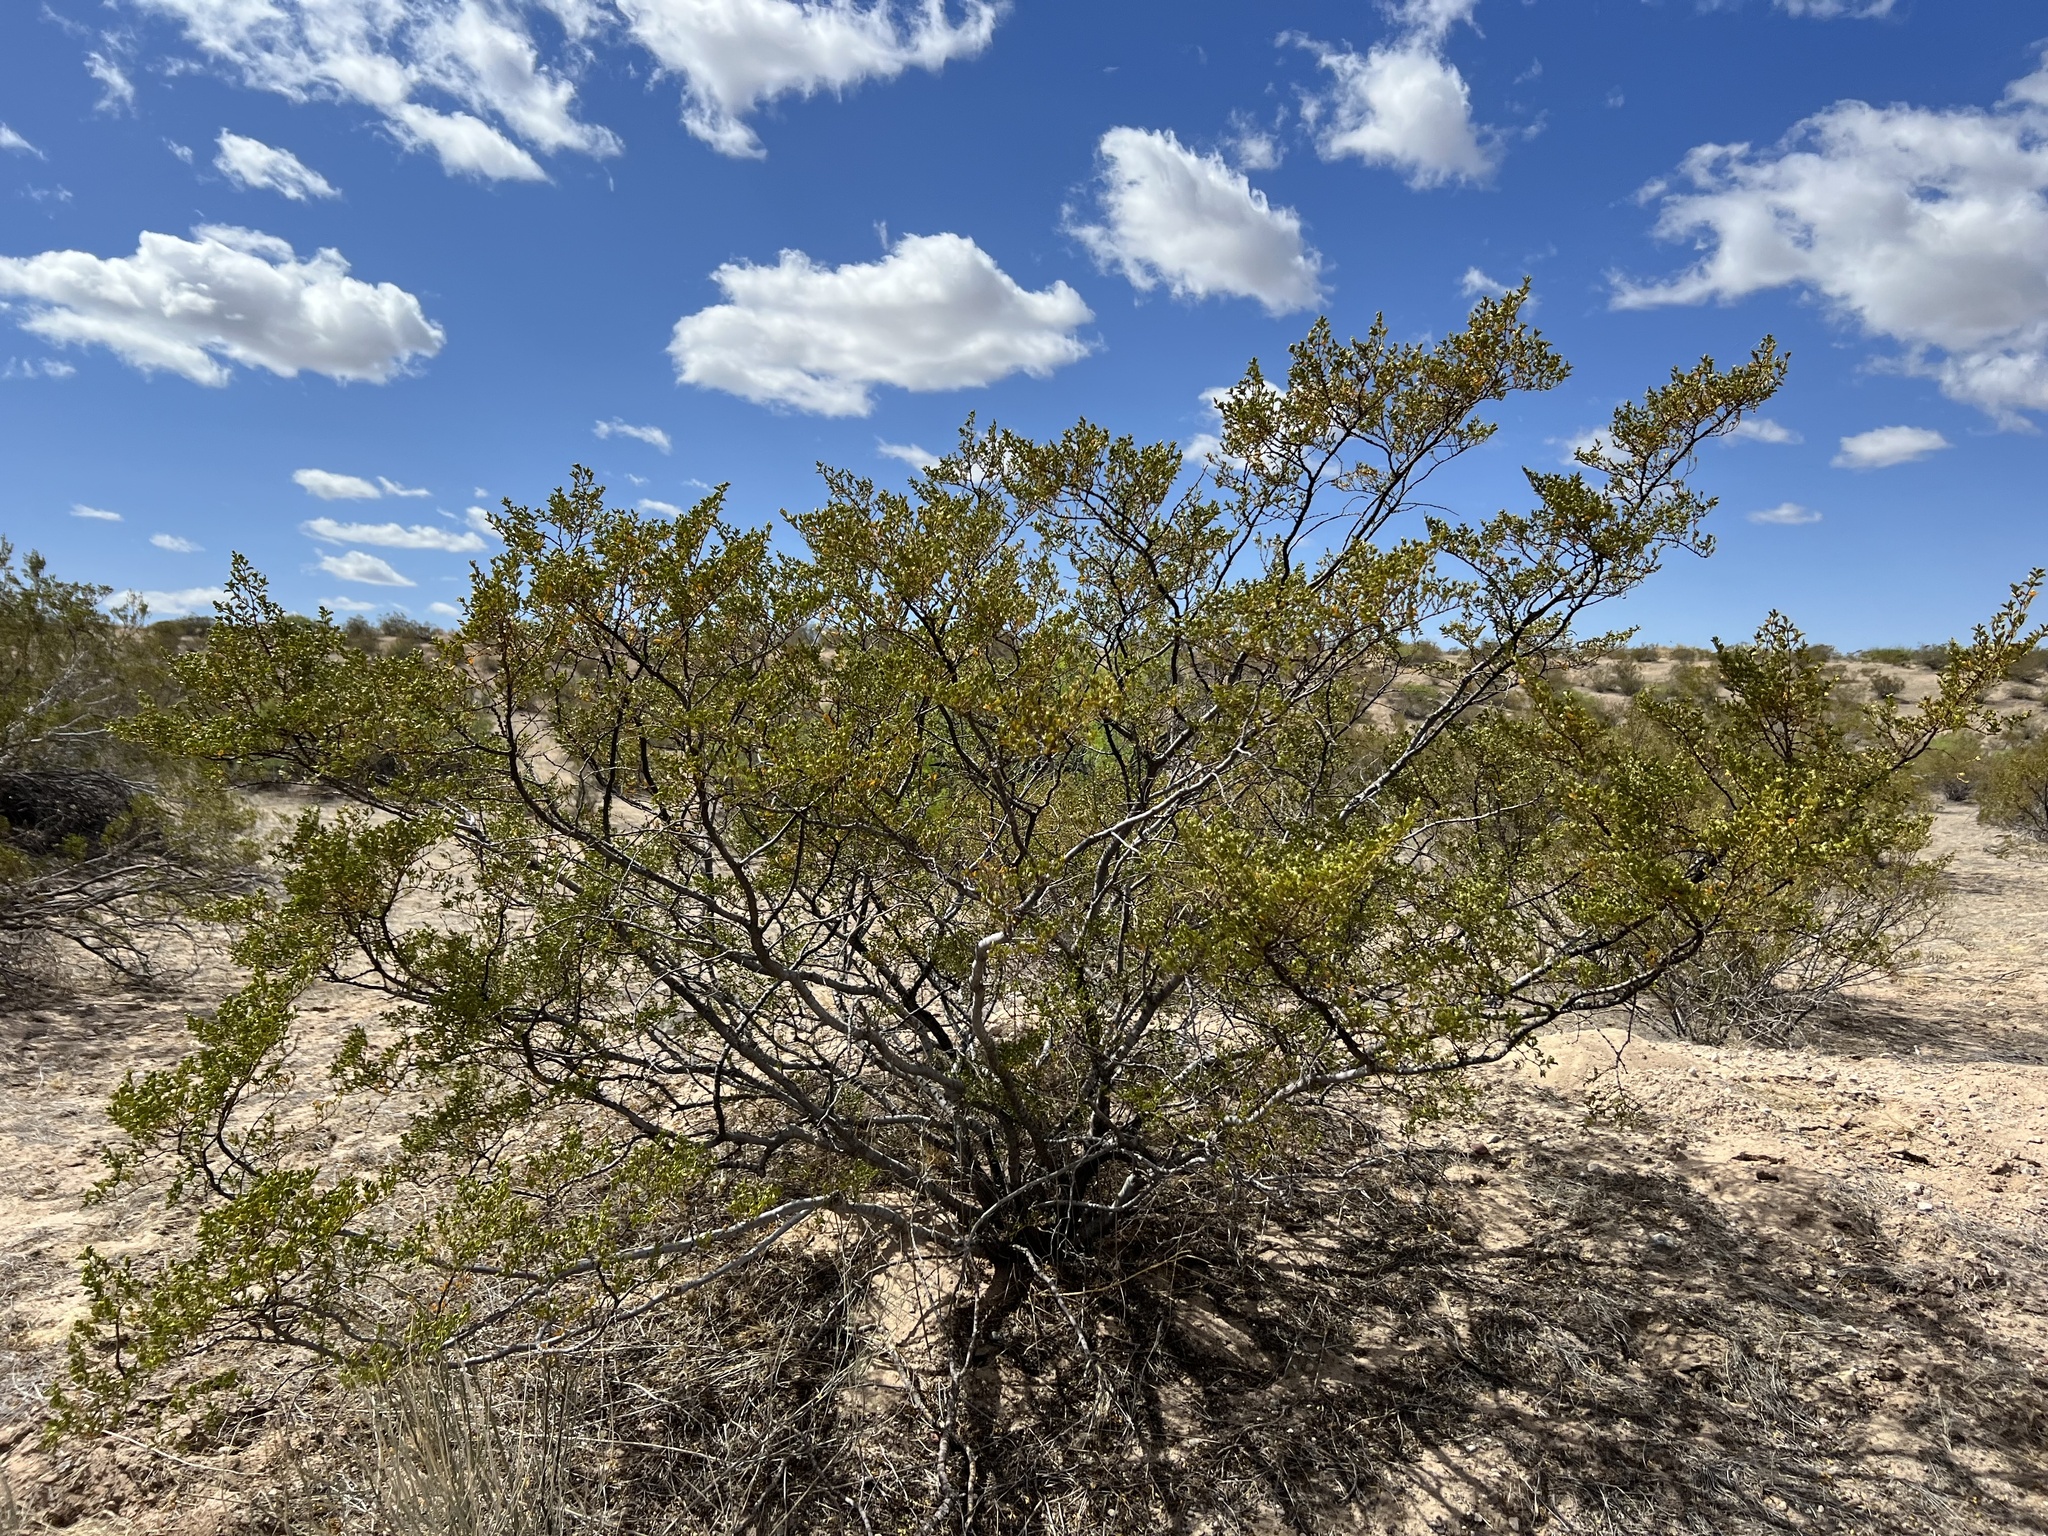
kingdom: Plantae
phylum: Tracheophyta
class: Magnoliopsida
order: Zygophyllales
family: Zygophyllaceae
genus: Larrea
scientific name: Larrea tridentata
